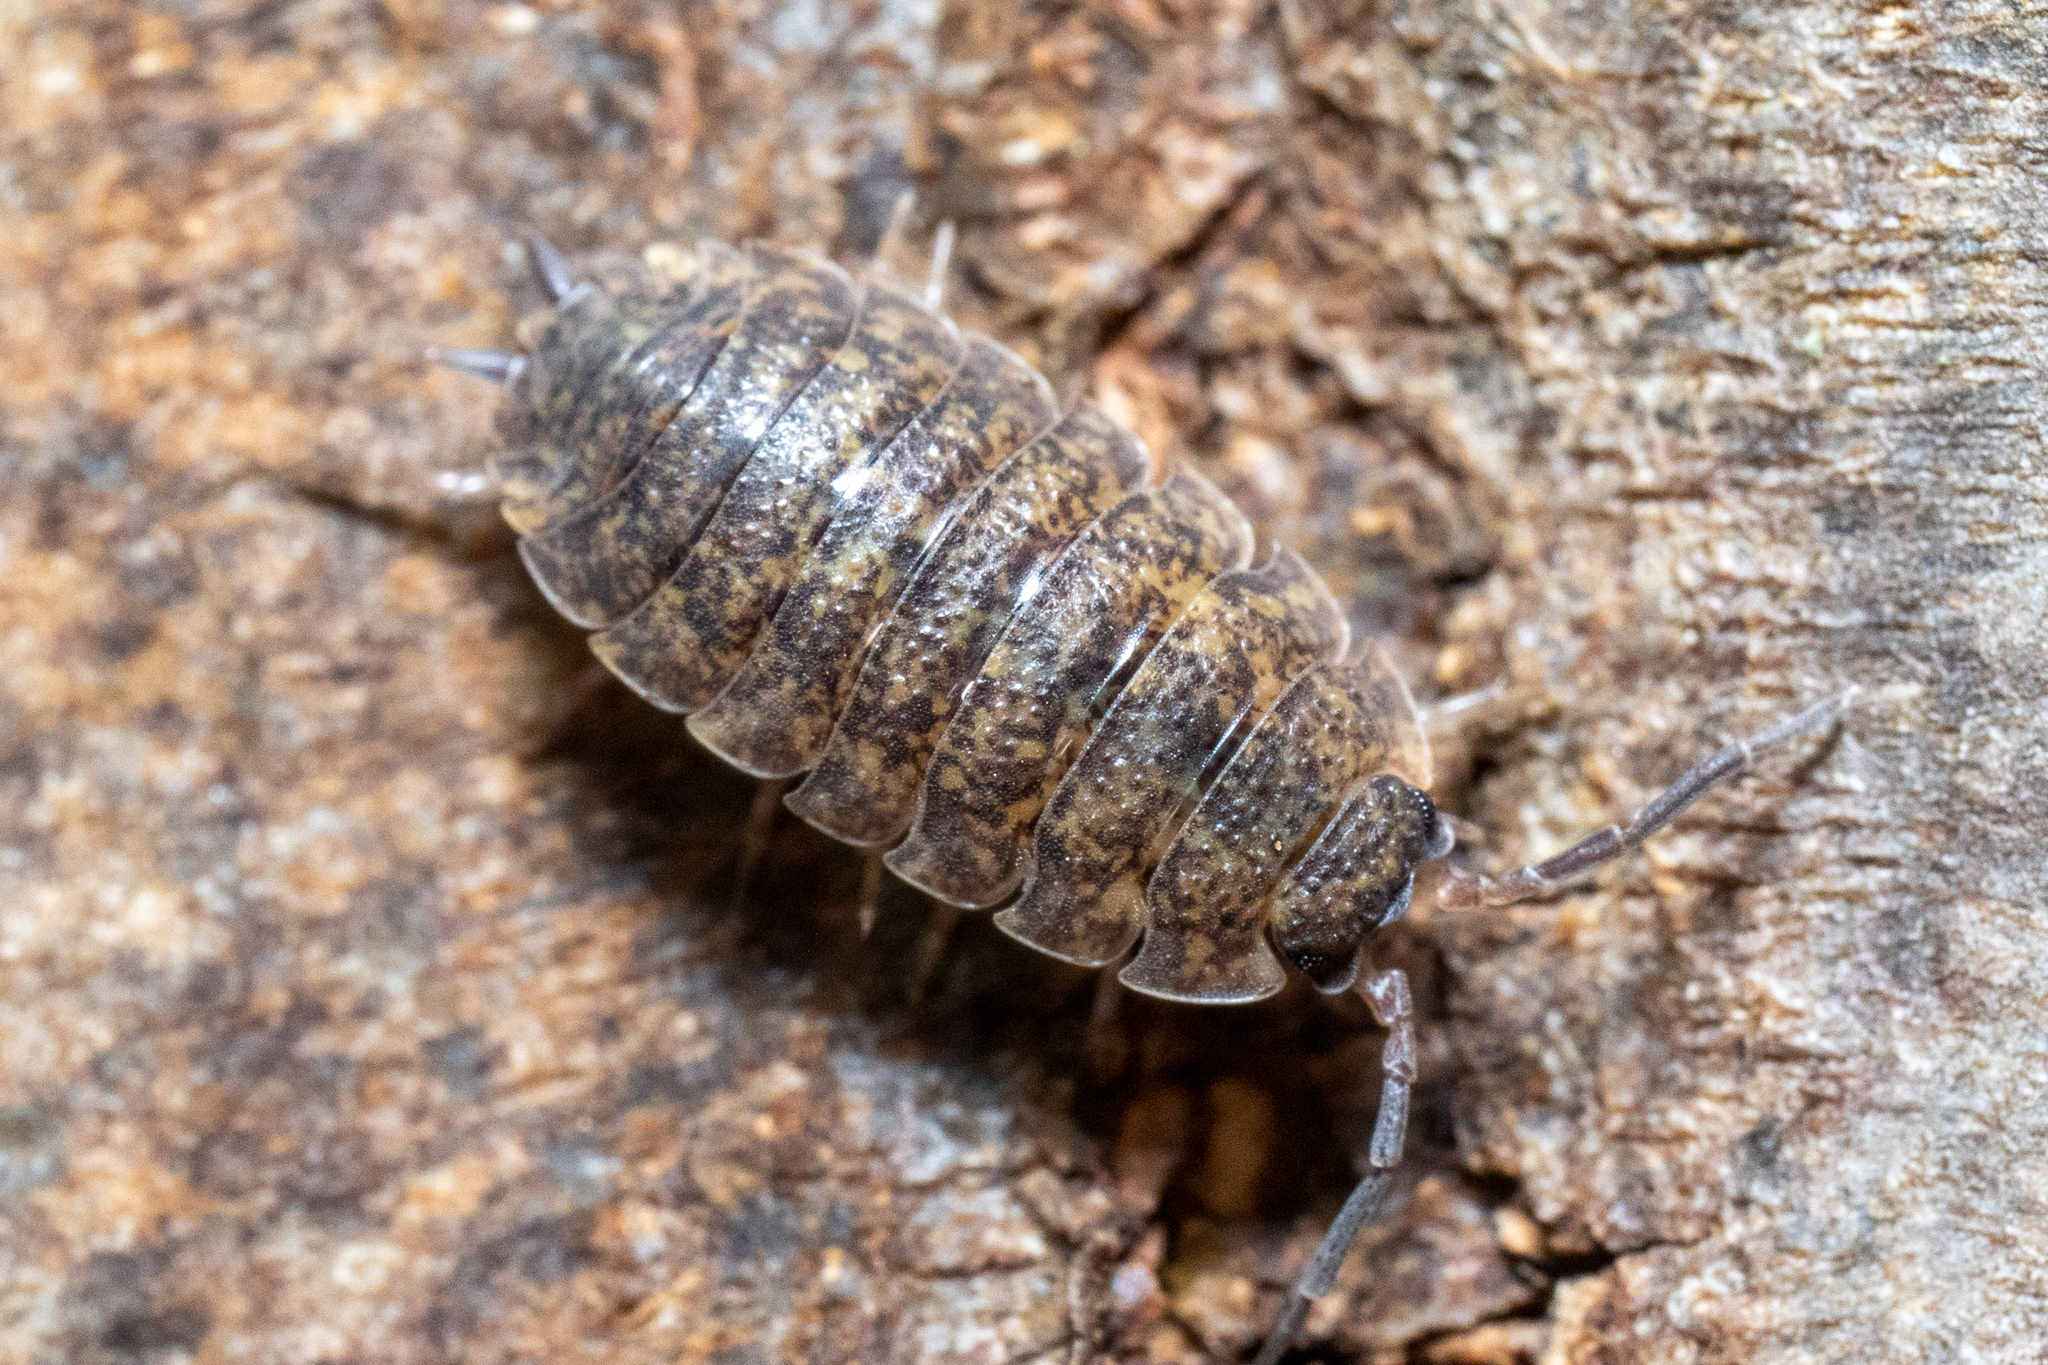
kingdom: Animalia
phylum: Arthropoda
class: Malacostraca
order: Isopoda
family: Porcellionidae
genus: Porcellio
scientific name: Porcellio scaber
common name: Common rough woodlouse
